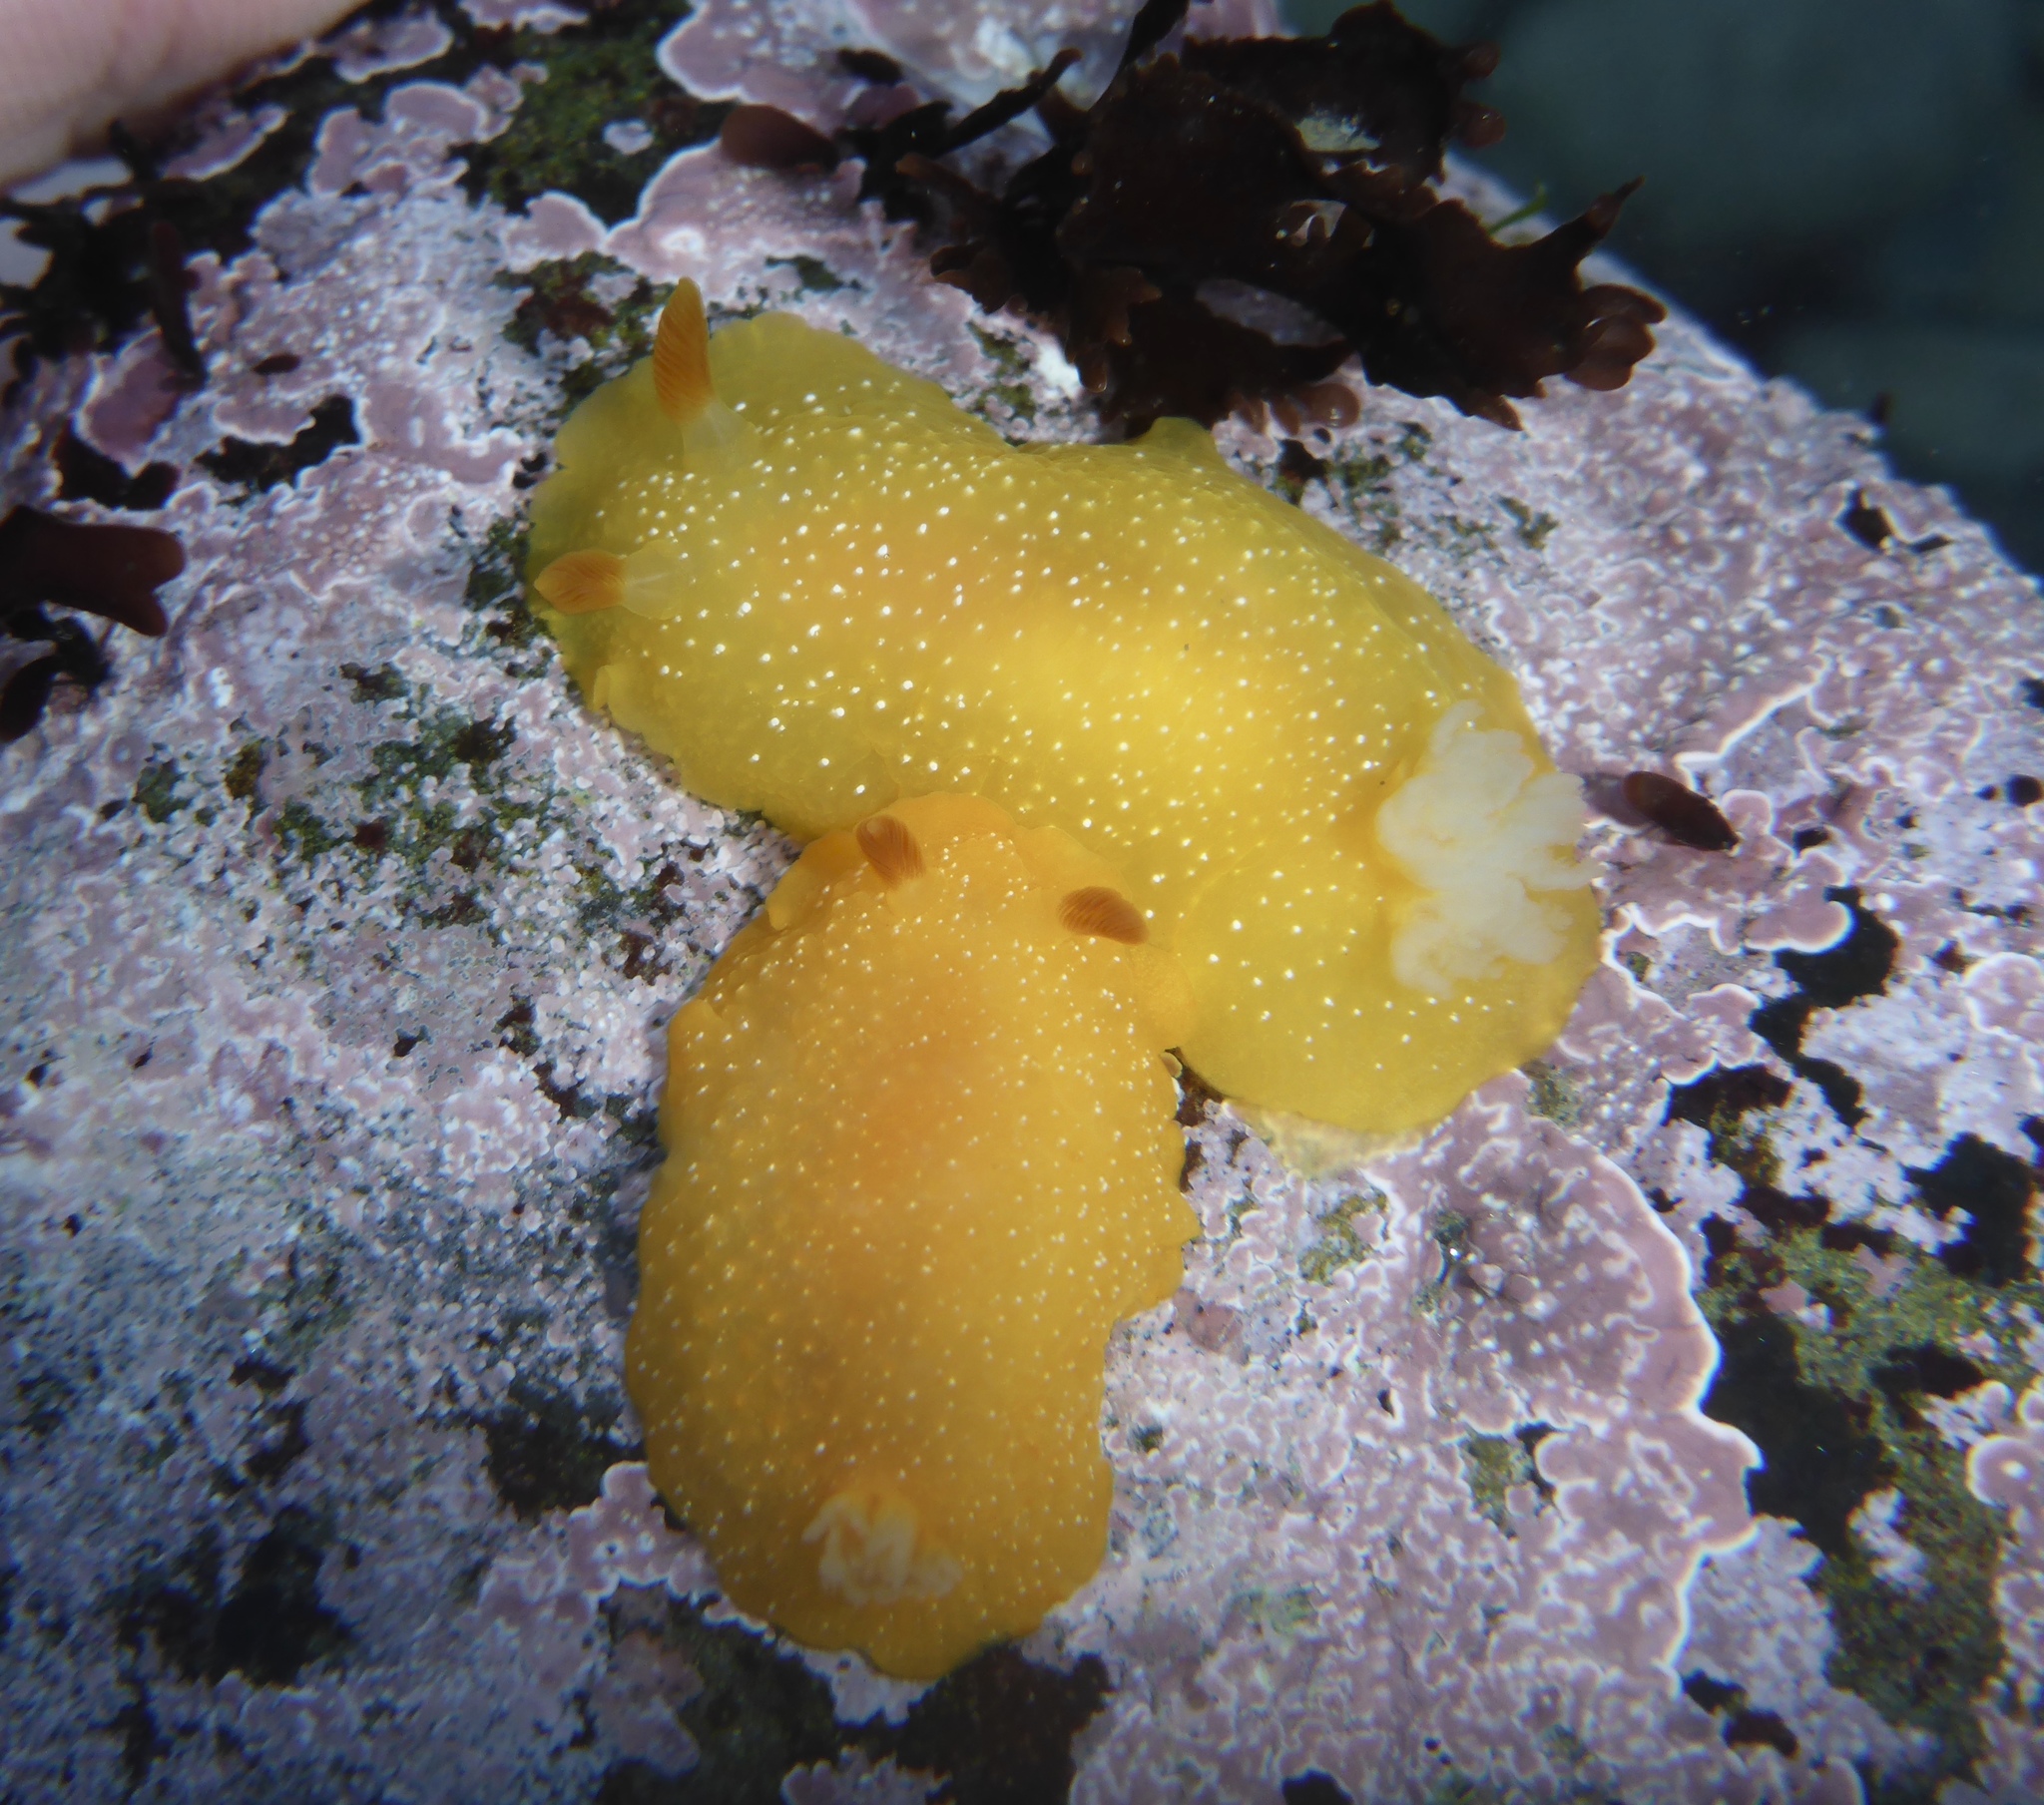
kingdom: Animalia
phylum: Mollusca
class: Gastropoda
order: Nudibranchia
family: Dendrodorididae
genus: Doriopsilla
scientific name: Doriopsilla fulva
